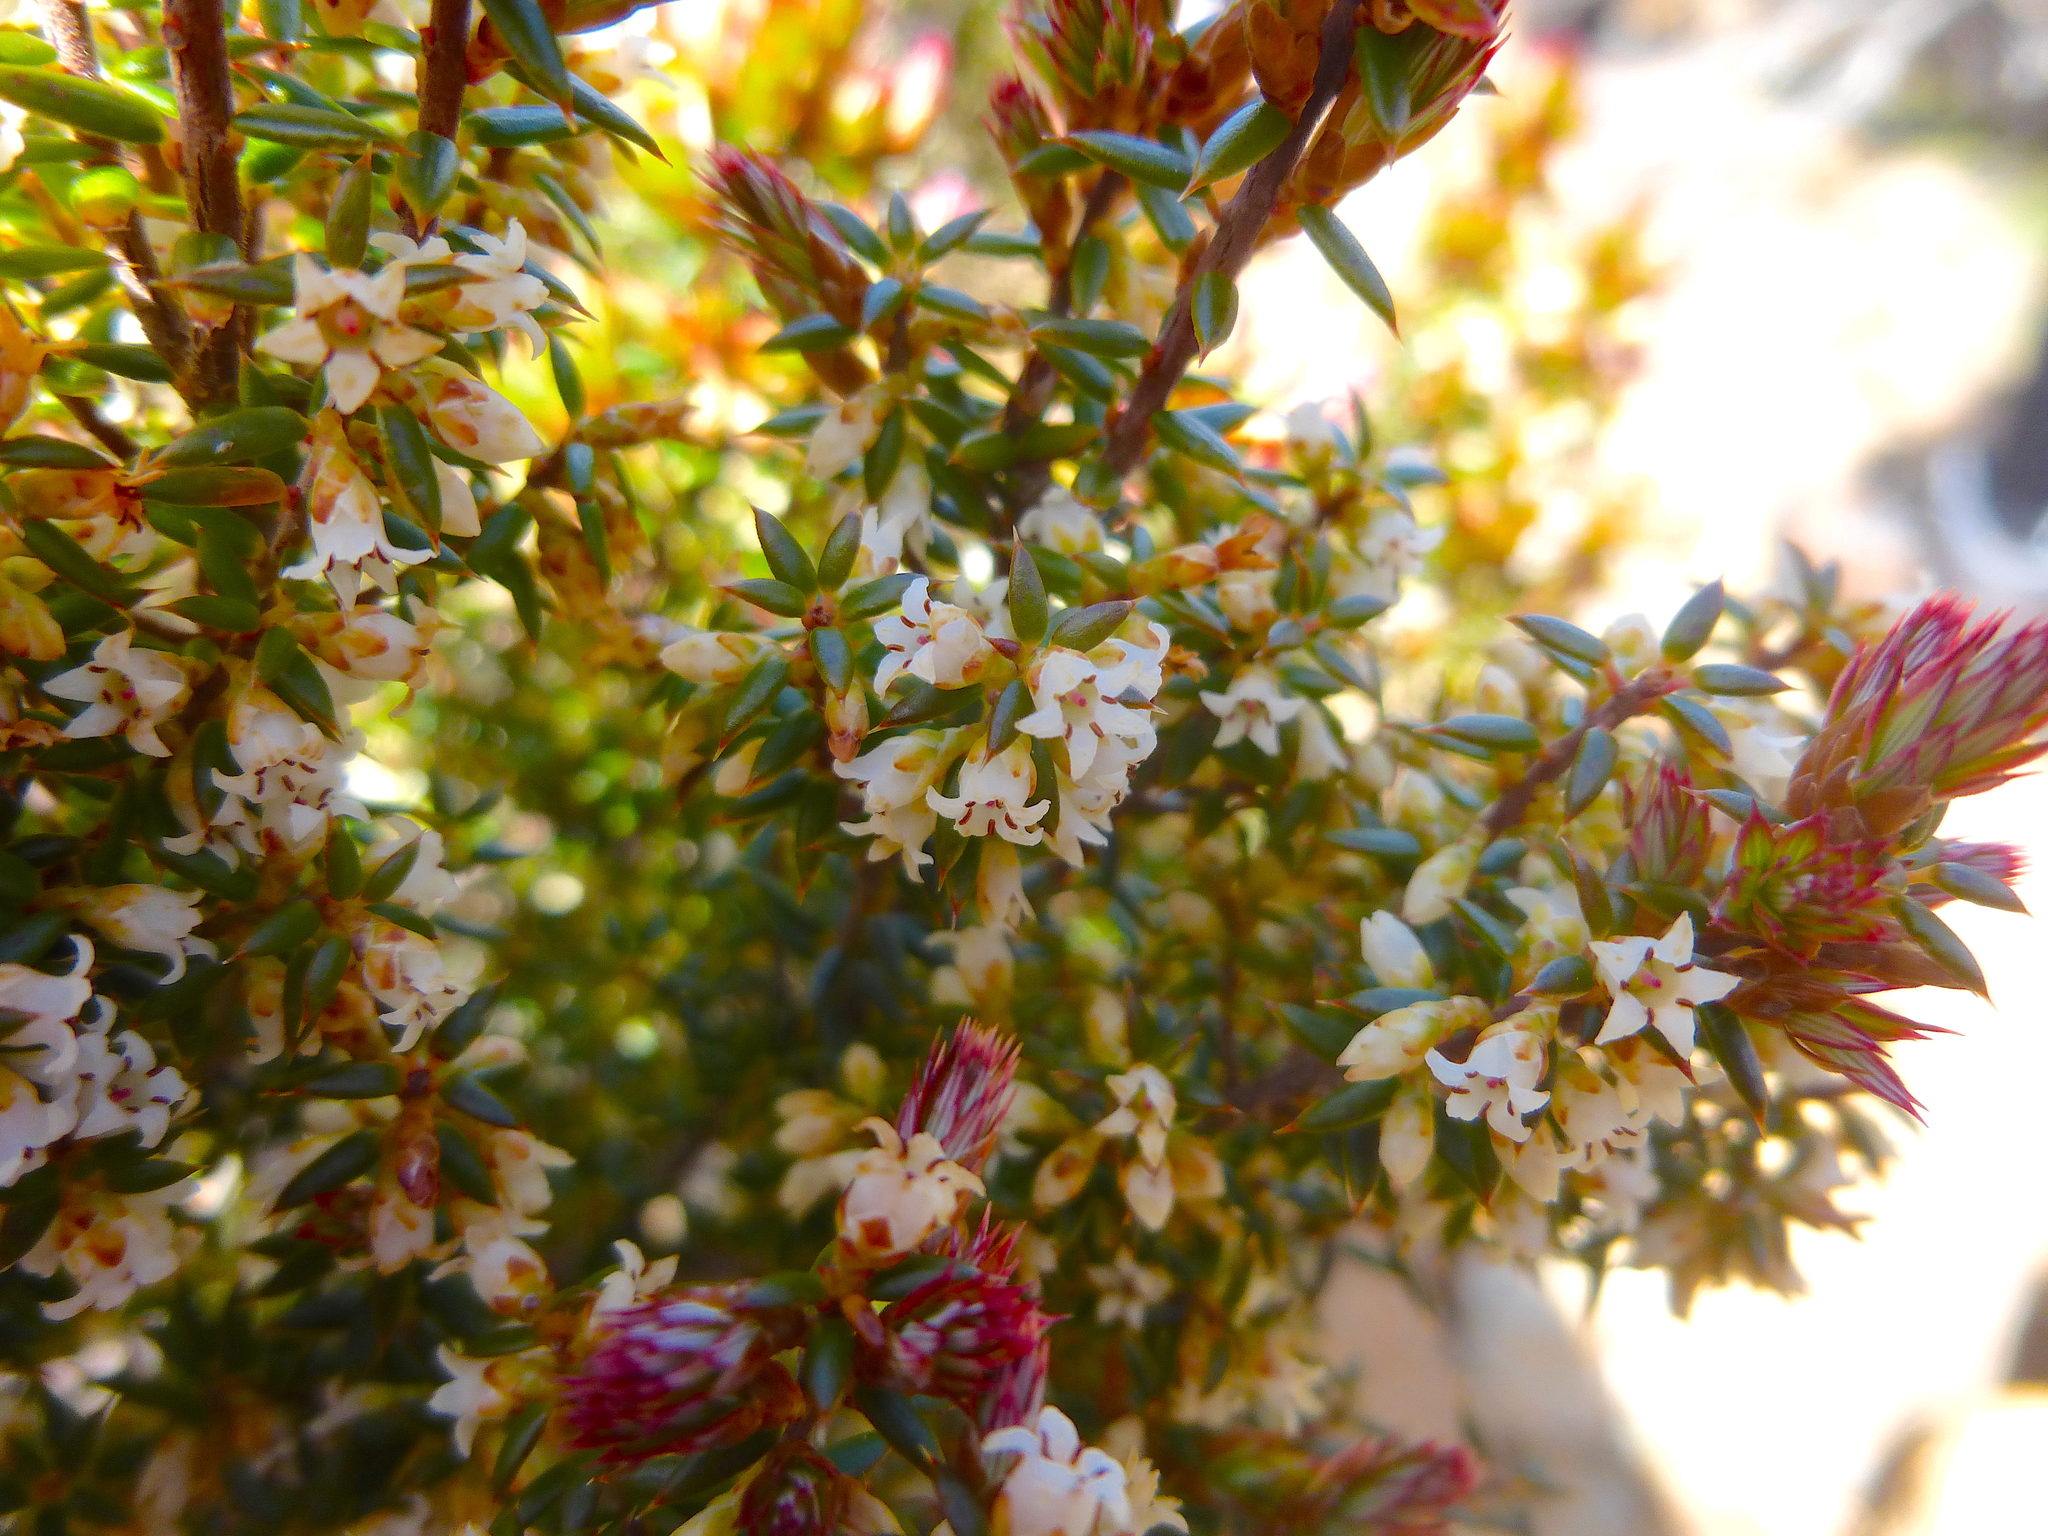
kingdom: Plantae
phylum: Tracheophyta
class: Magnoliopsida
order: Ericales
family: Ericaceae
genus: Leptecophylla
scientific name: Leptecophylla parvifolia
